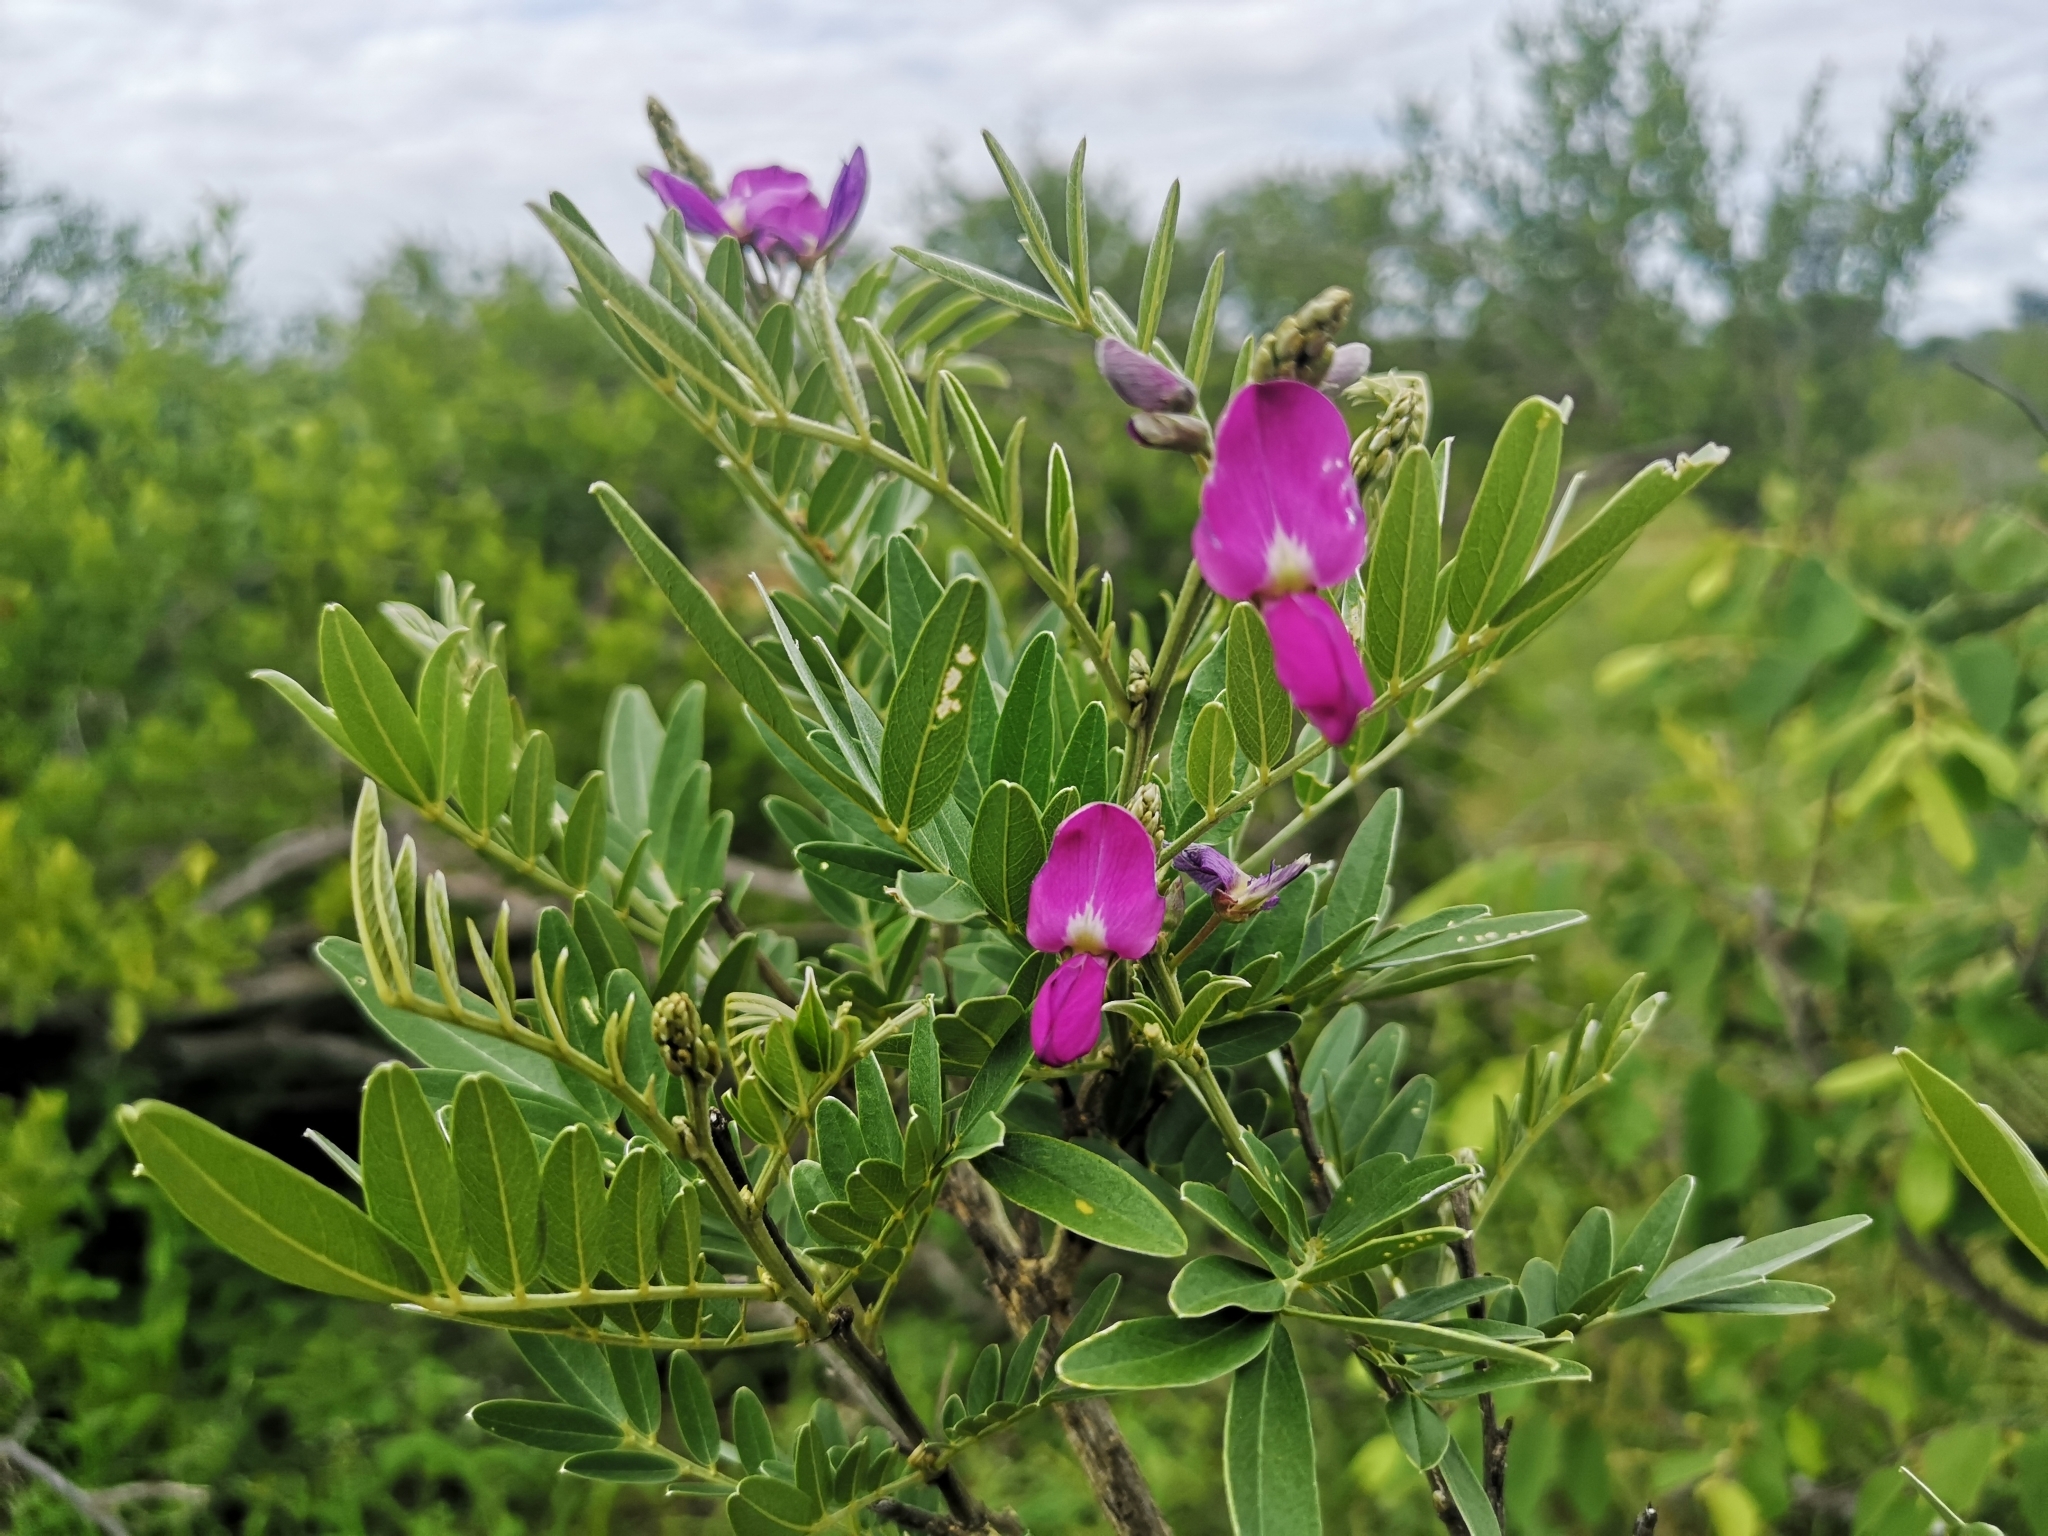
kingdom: Plantae
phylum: Tracheophyta
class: Magnoliopsida
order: Fabales
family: Fabaceae
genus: Mundulea
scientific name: Mundulea sericea
